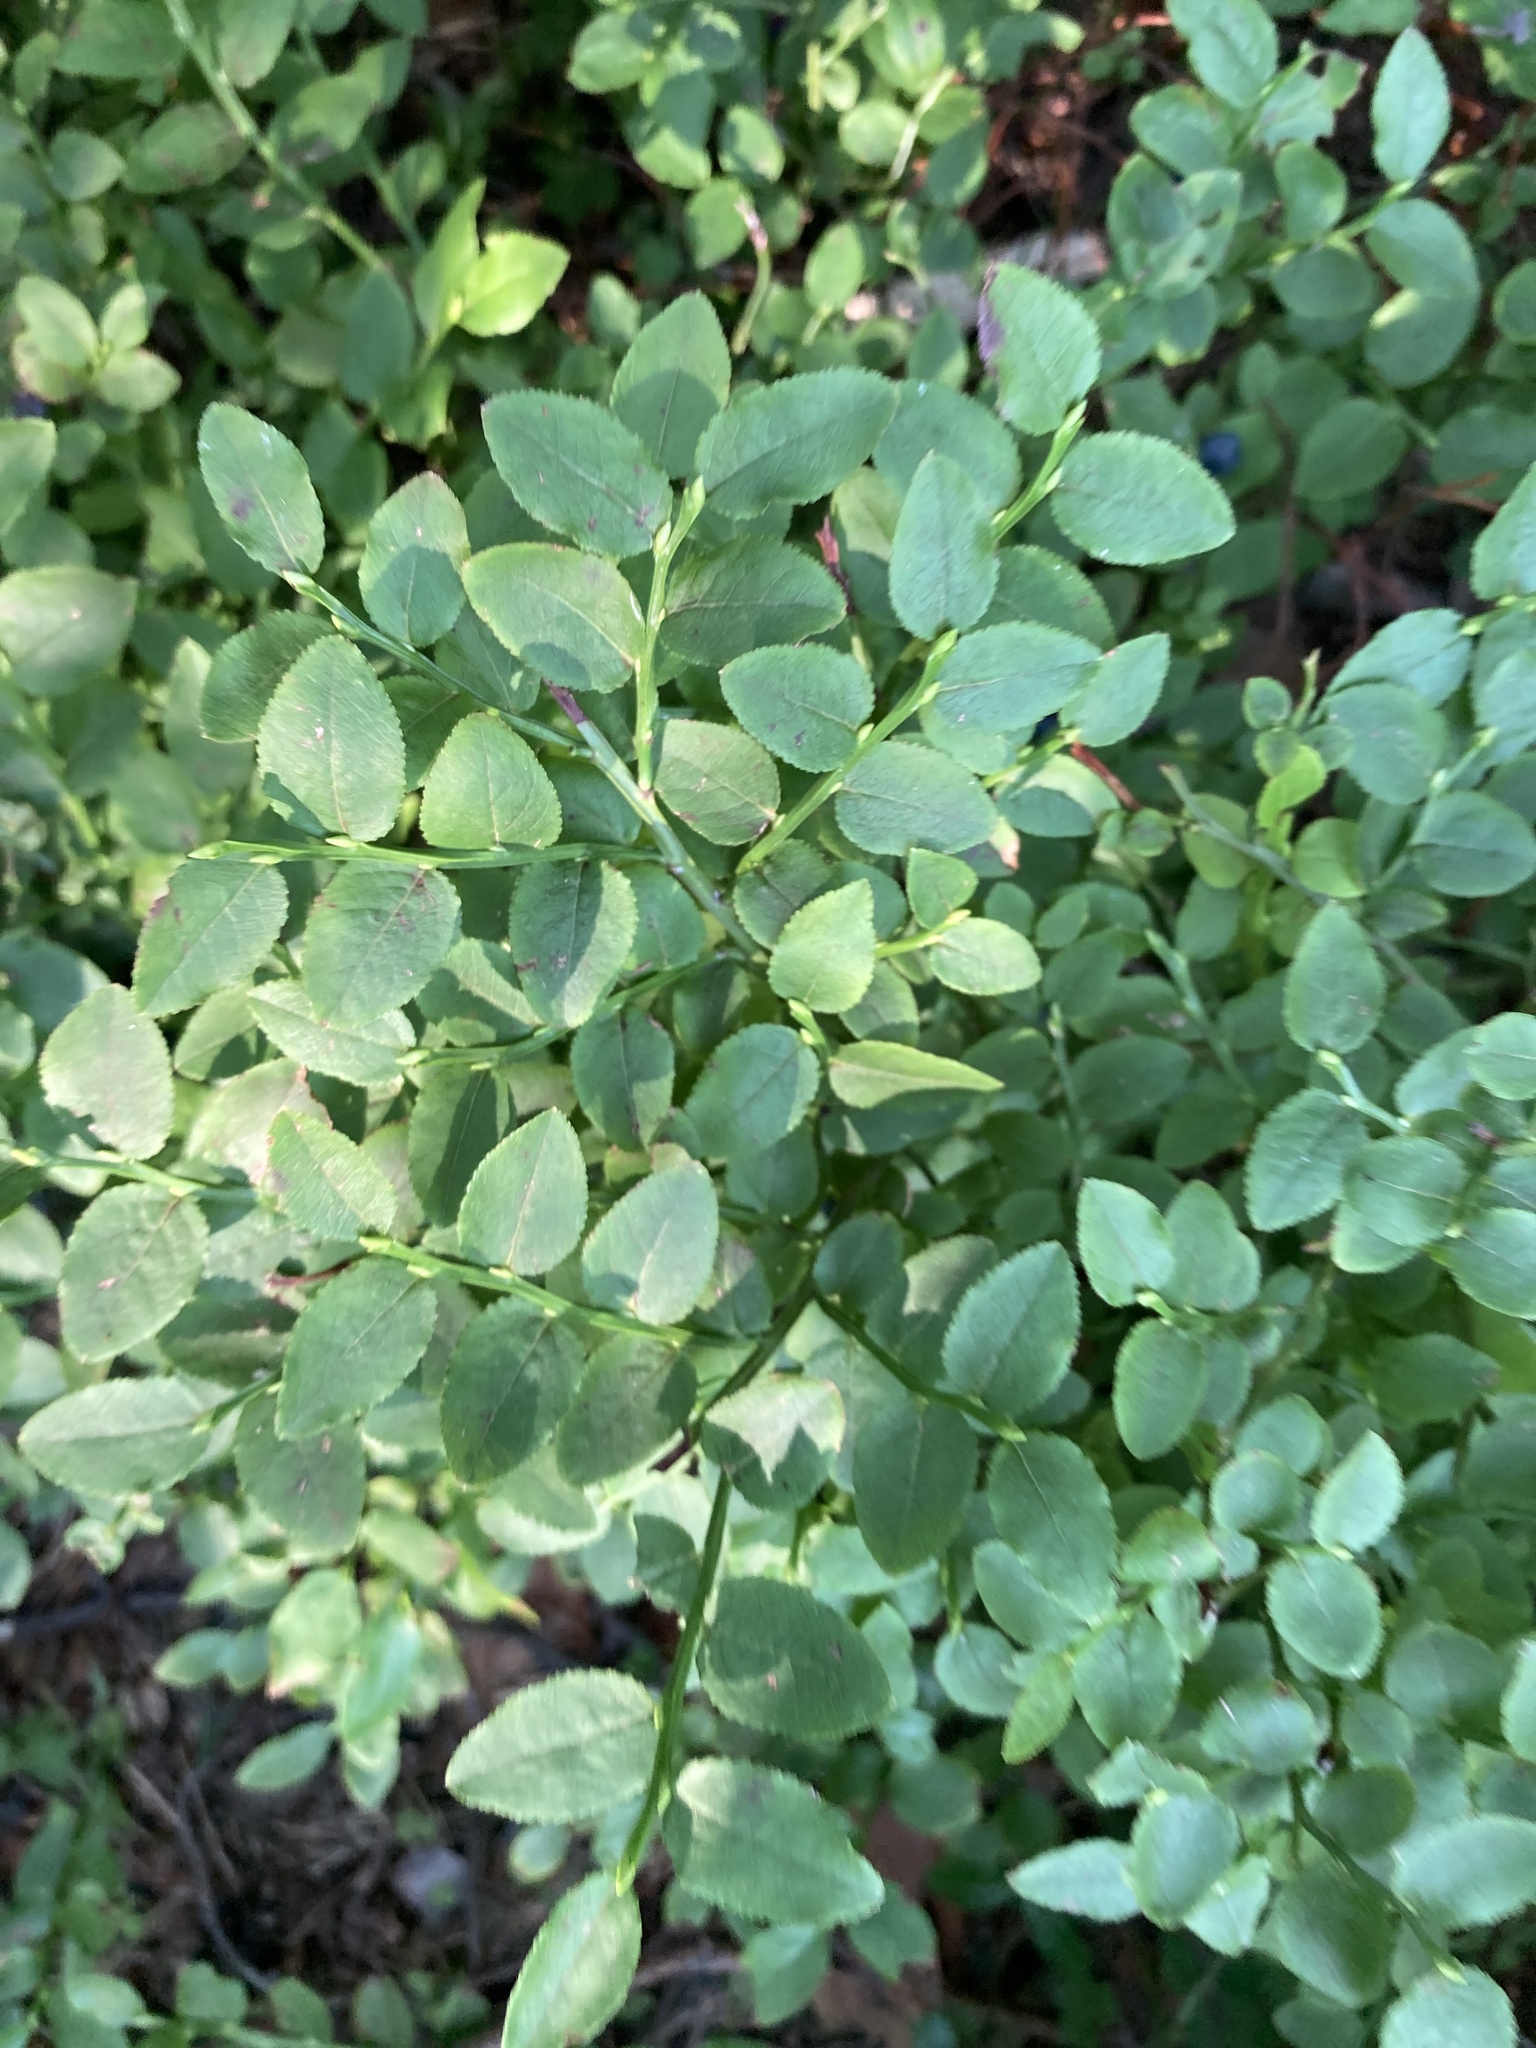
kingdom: Plantae
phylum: Tracheophyta
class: Magnoliopsida
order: Ericales
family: Ericaceae
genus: Vaccinium
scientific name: Vaccinium myrtillus
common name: Bilberry
